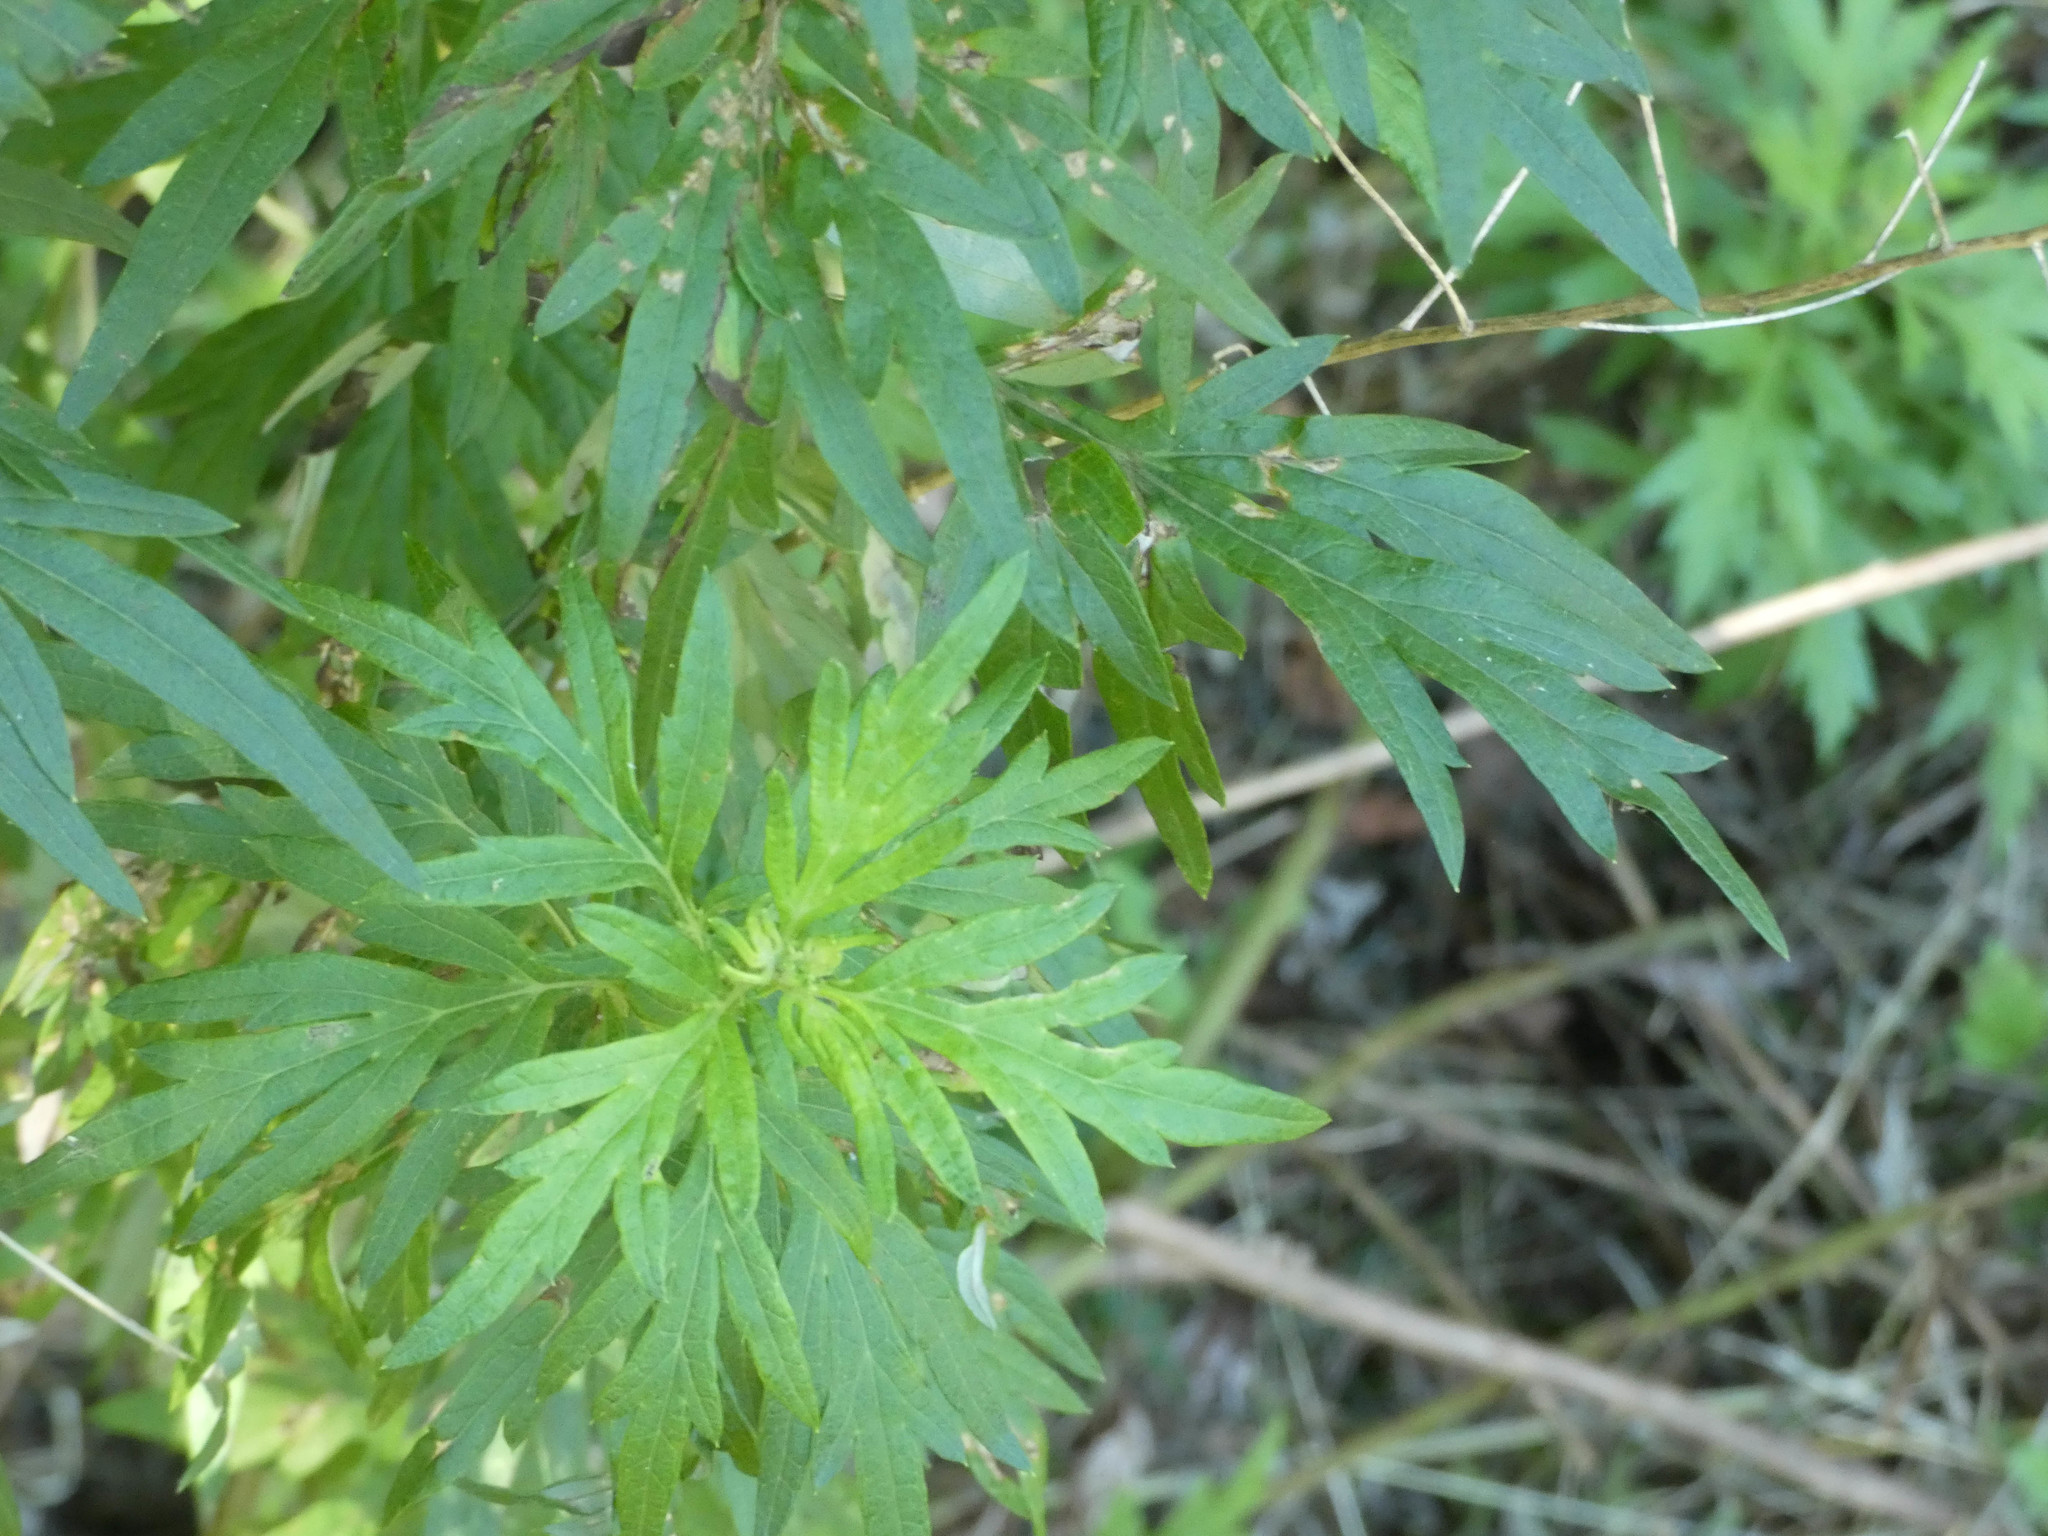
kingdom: Plantae
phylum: Tracheophyta
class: Magnoliopsida
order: Asterales
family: Asteraceae
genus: Artemisia
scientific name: Artemisia vulgaris
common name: Mugwort
